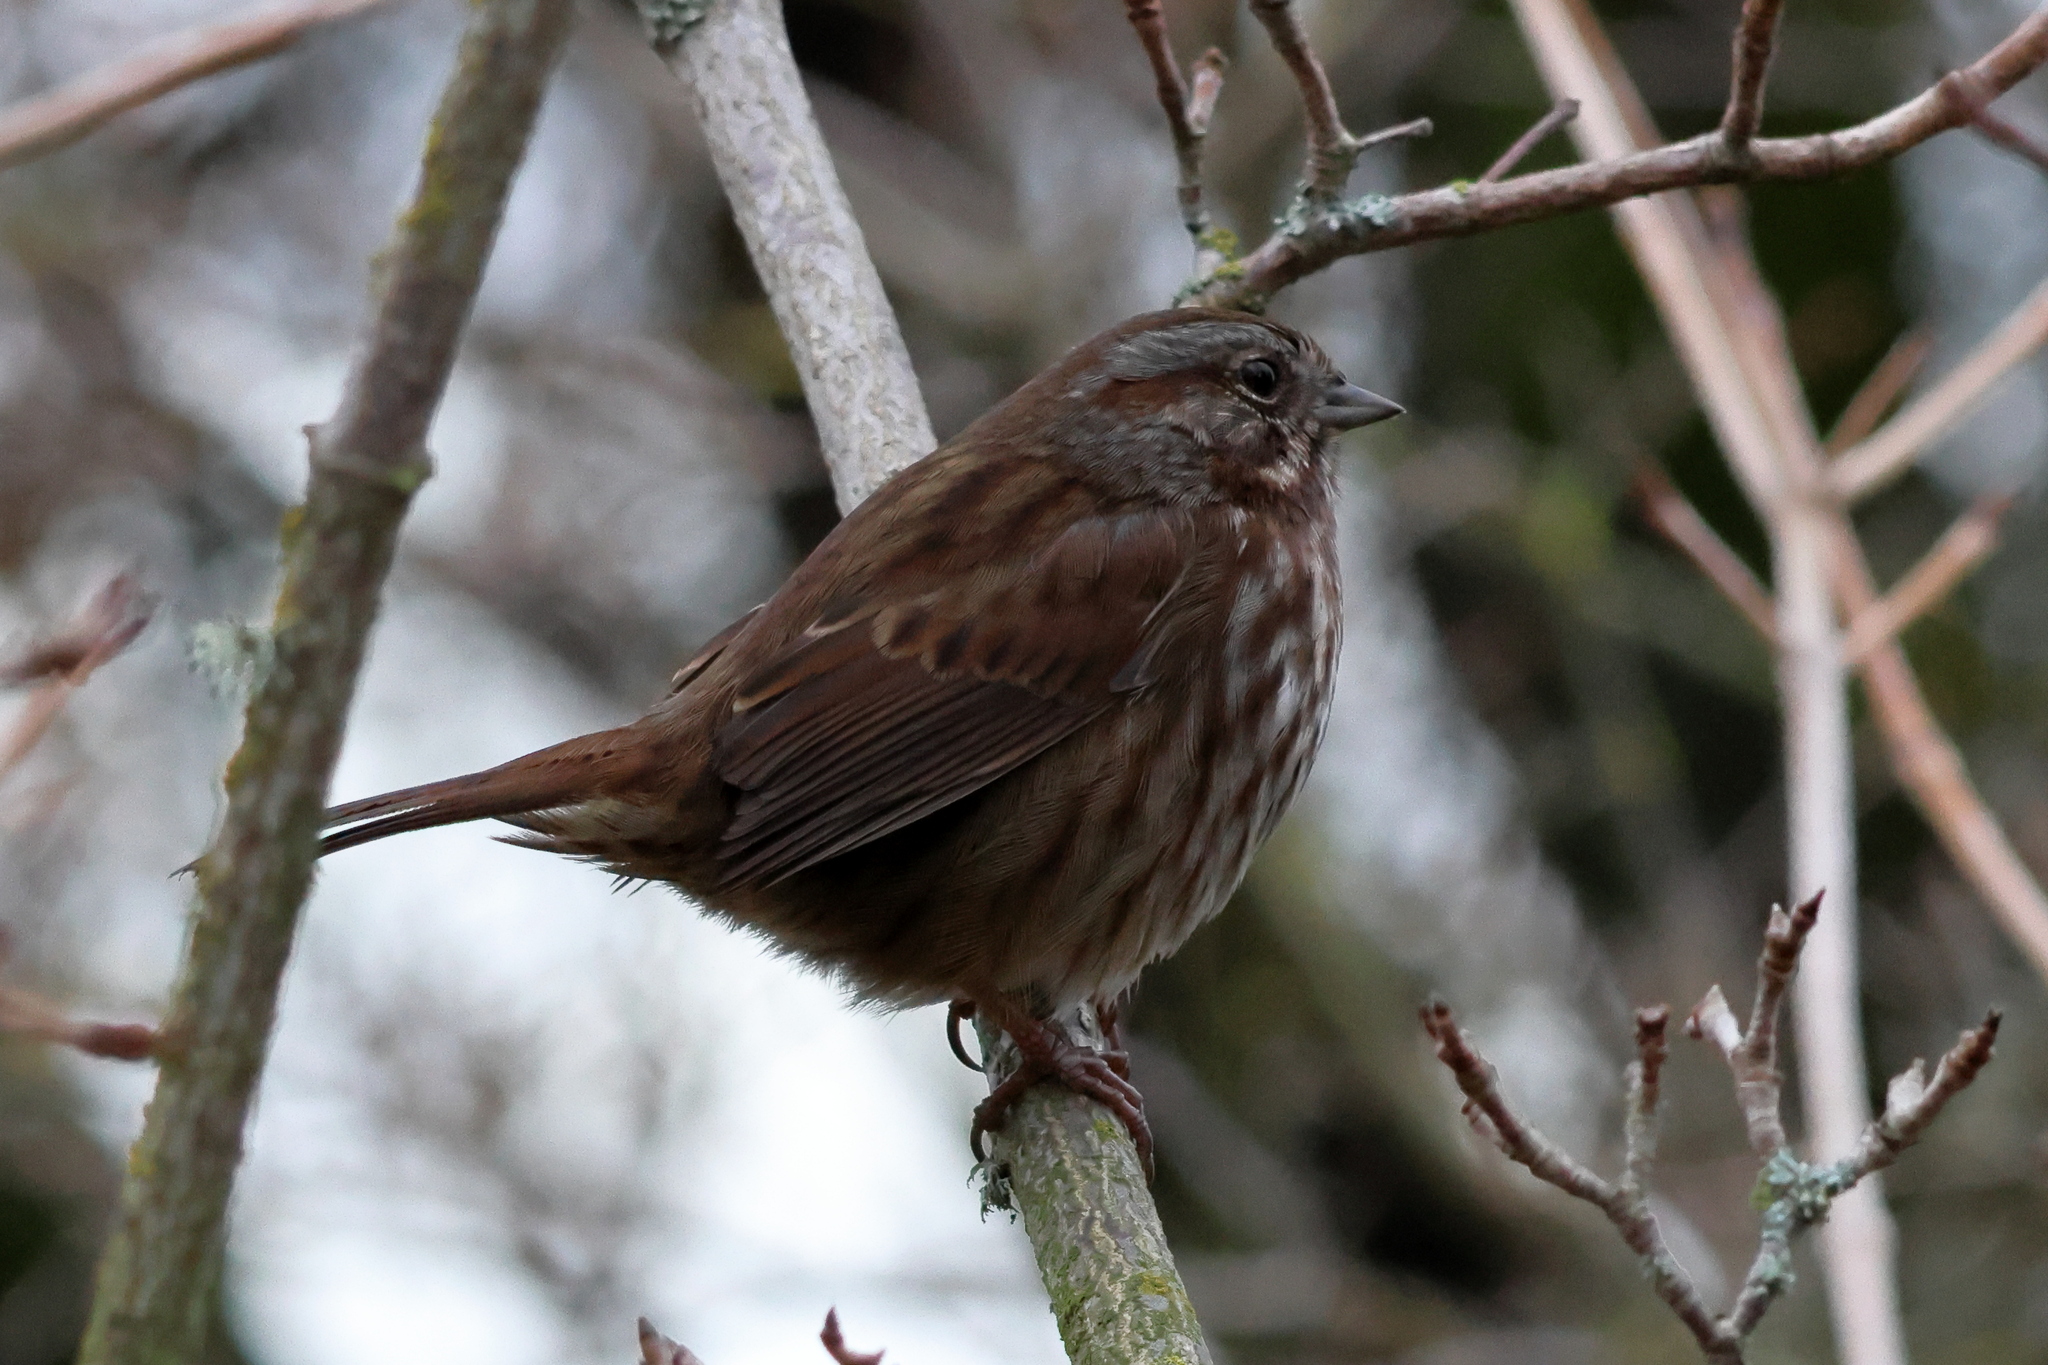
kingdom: Animalia
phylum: Chordata
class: Aves
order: Passeriformes
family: Passerellidae
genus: Melospiza
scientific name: Melospiza melodia
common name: Song sparrow
